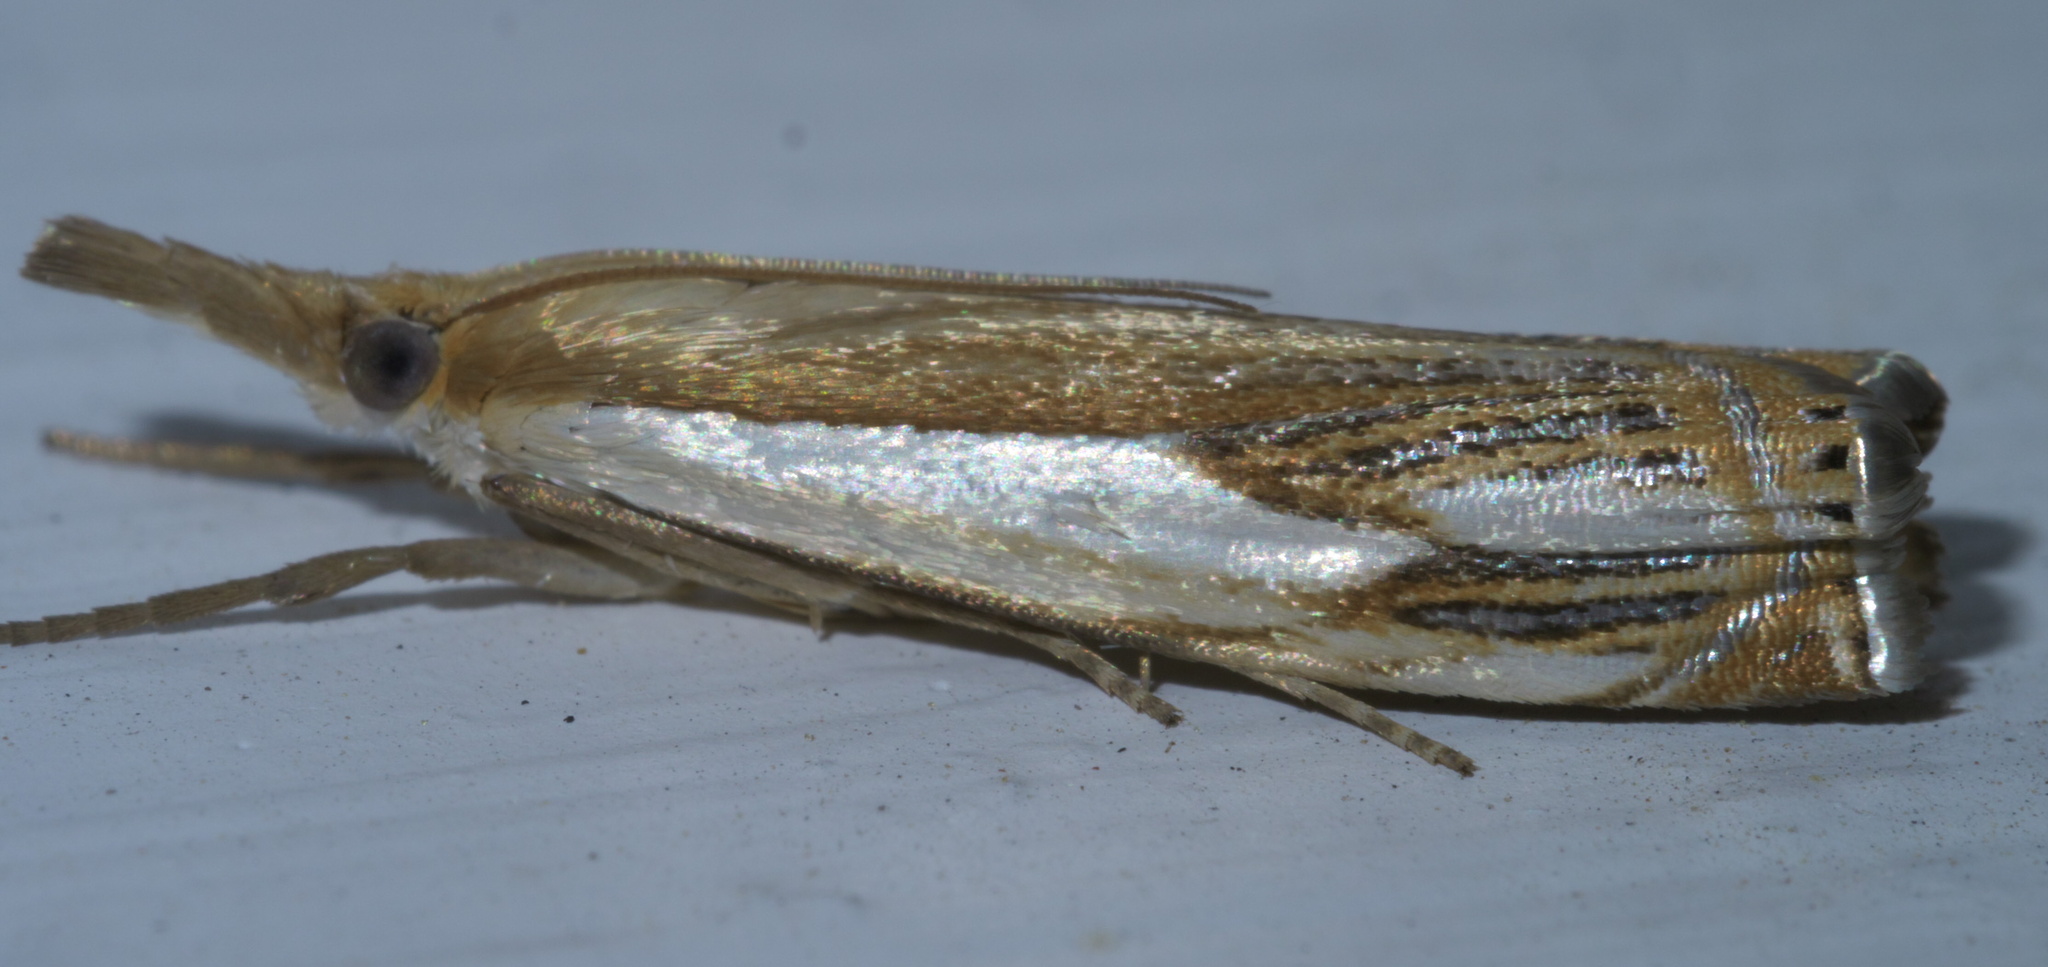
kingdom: Animalia
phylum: Arthropoda
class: Insecta
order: Lepidoptera
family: Crambidae
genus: Crambus
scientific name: Crambus agitatellus
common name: Double-banded grass-veneer
